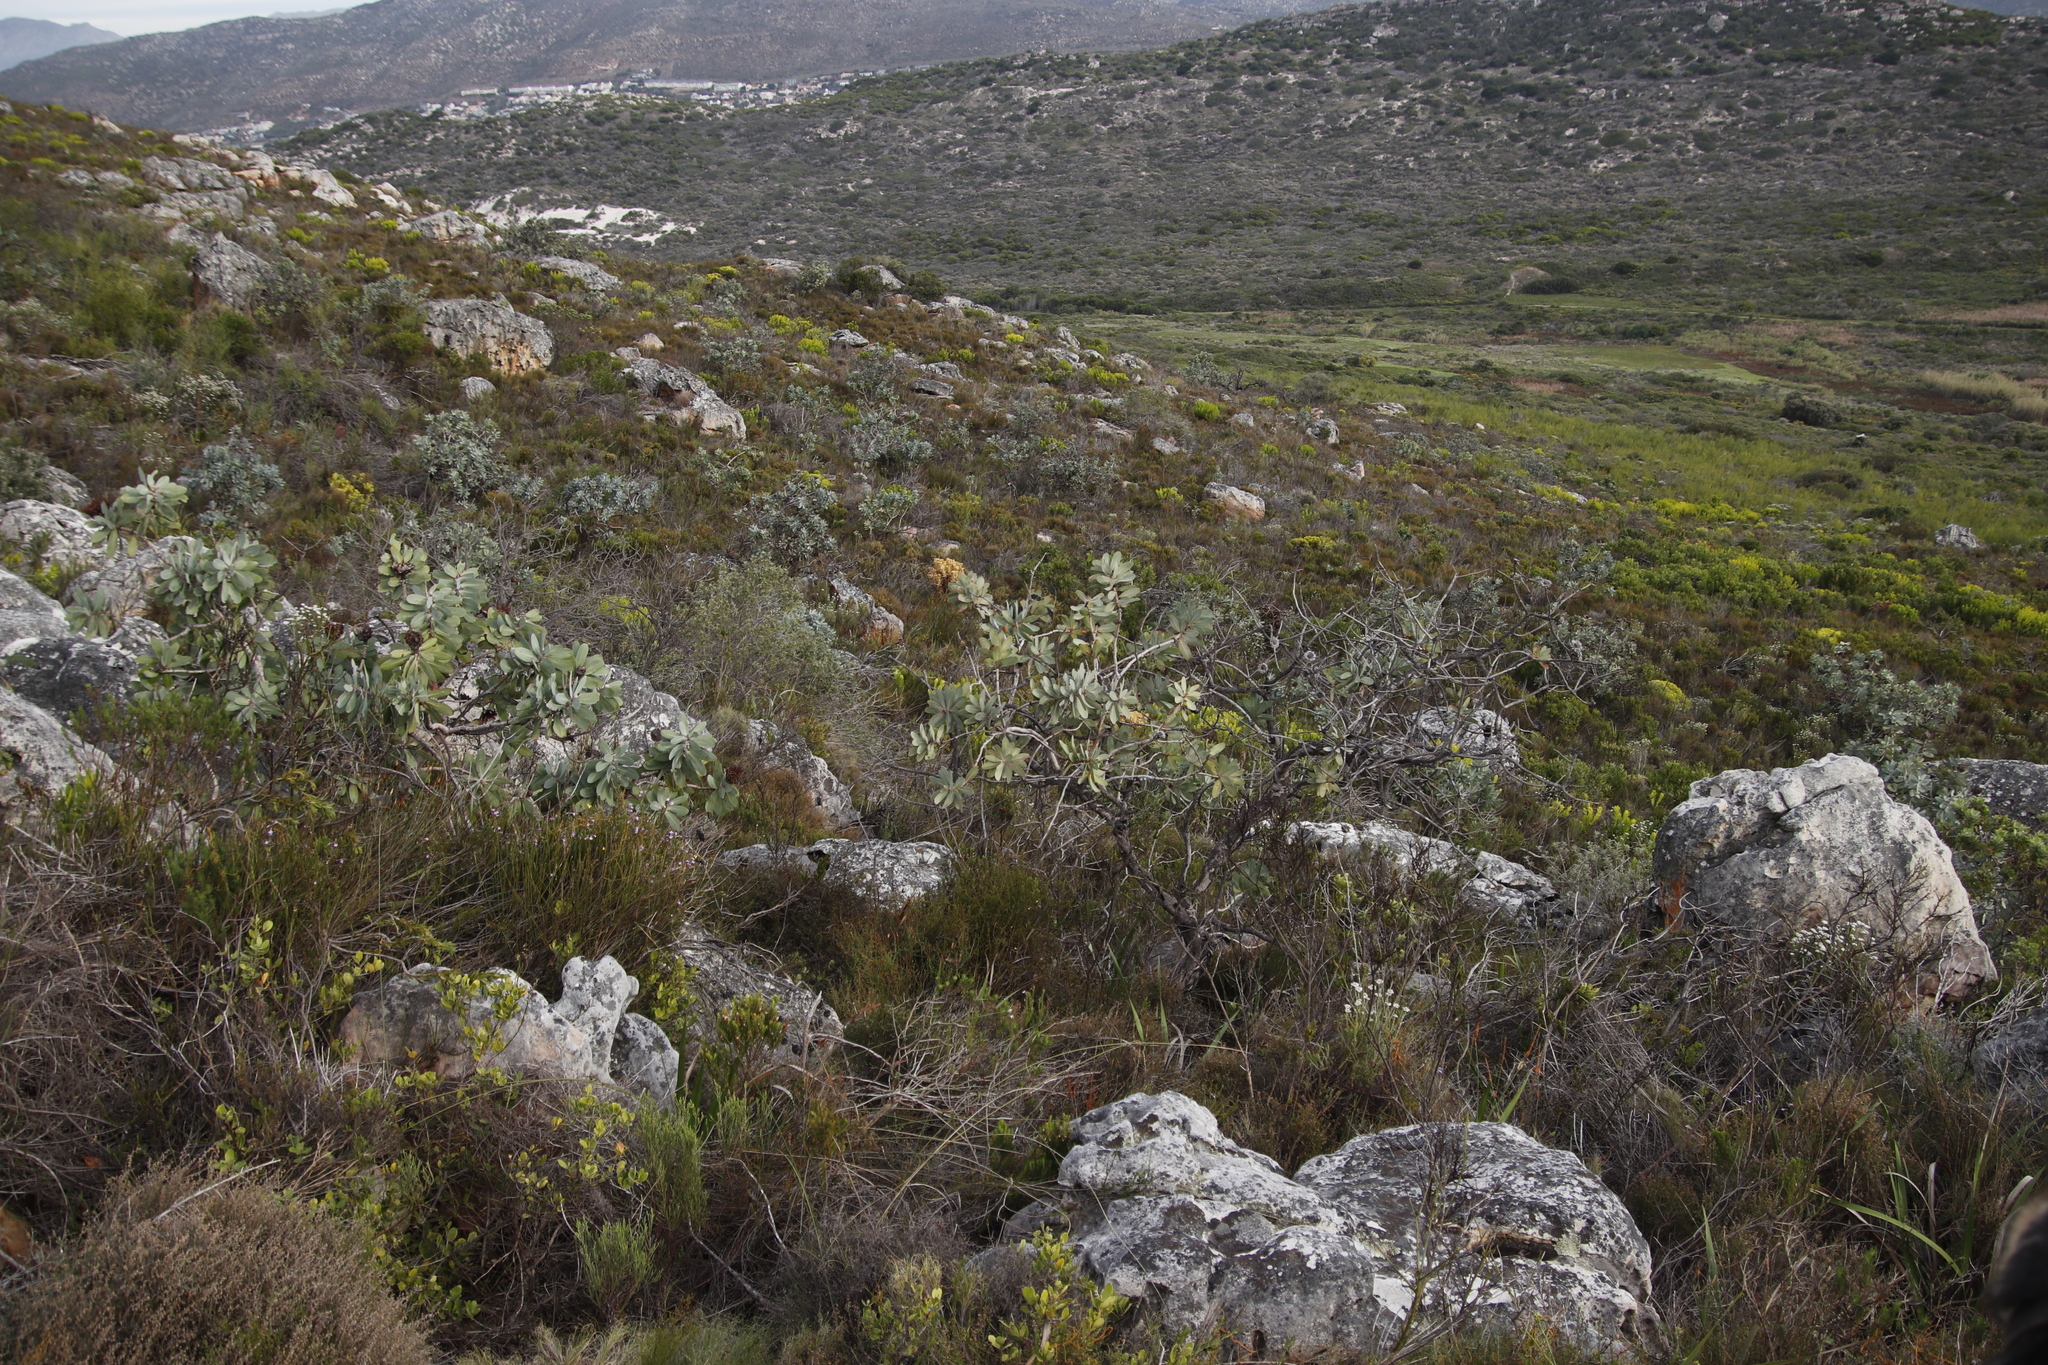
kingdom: Plantae
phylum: Tracheophyta
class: Magnoliopsida
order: Proteales
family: Proteaceae
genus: Protea
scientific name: Protea nitida
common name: Tree protea
